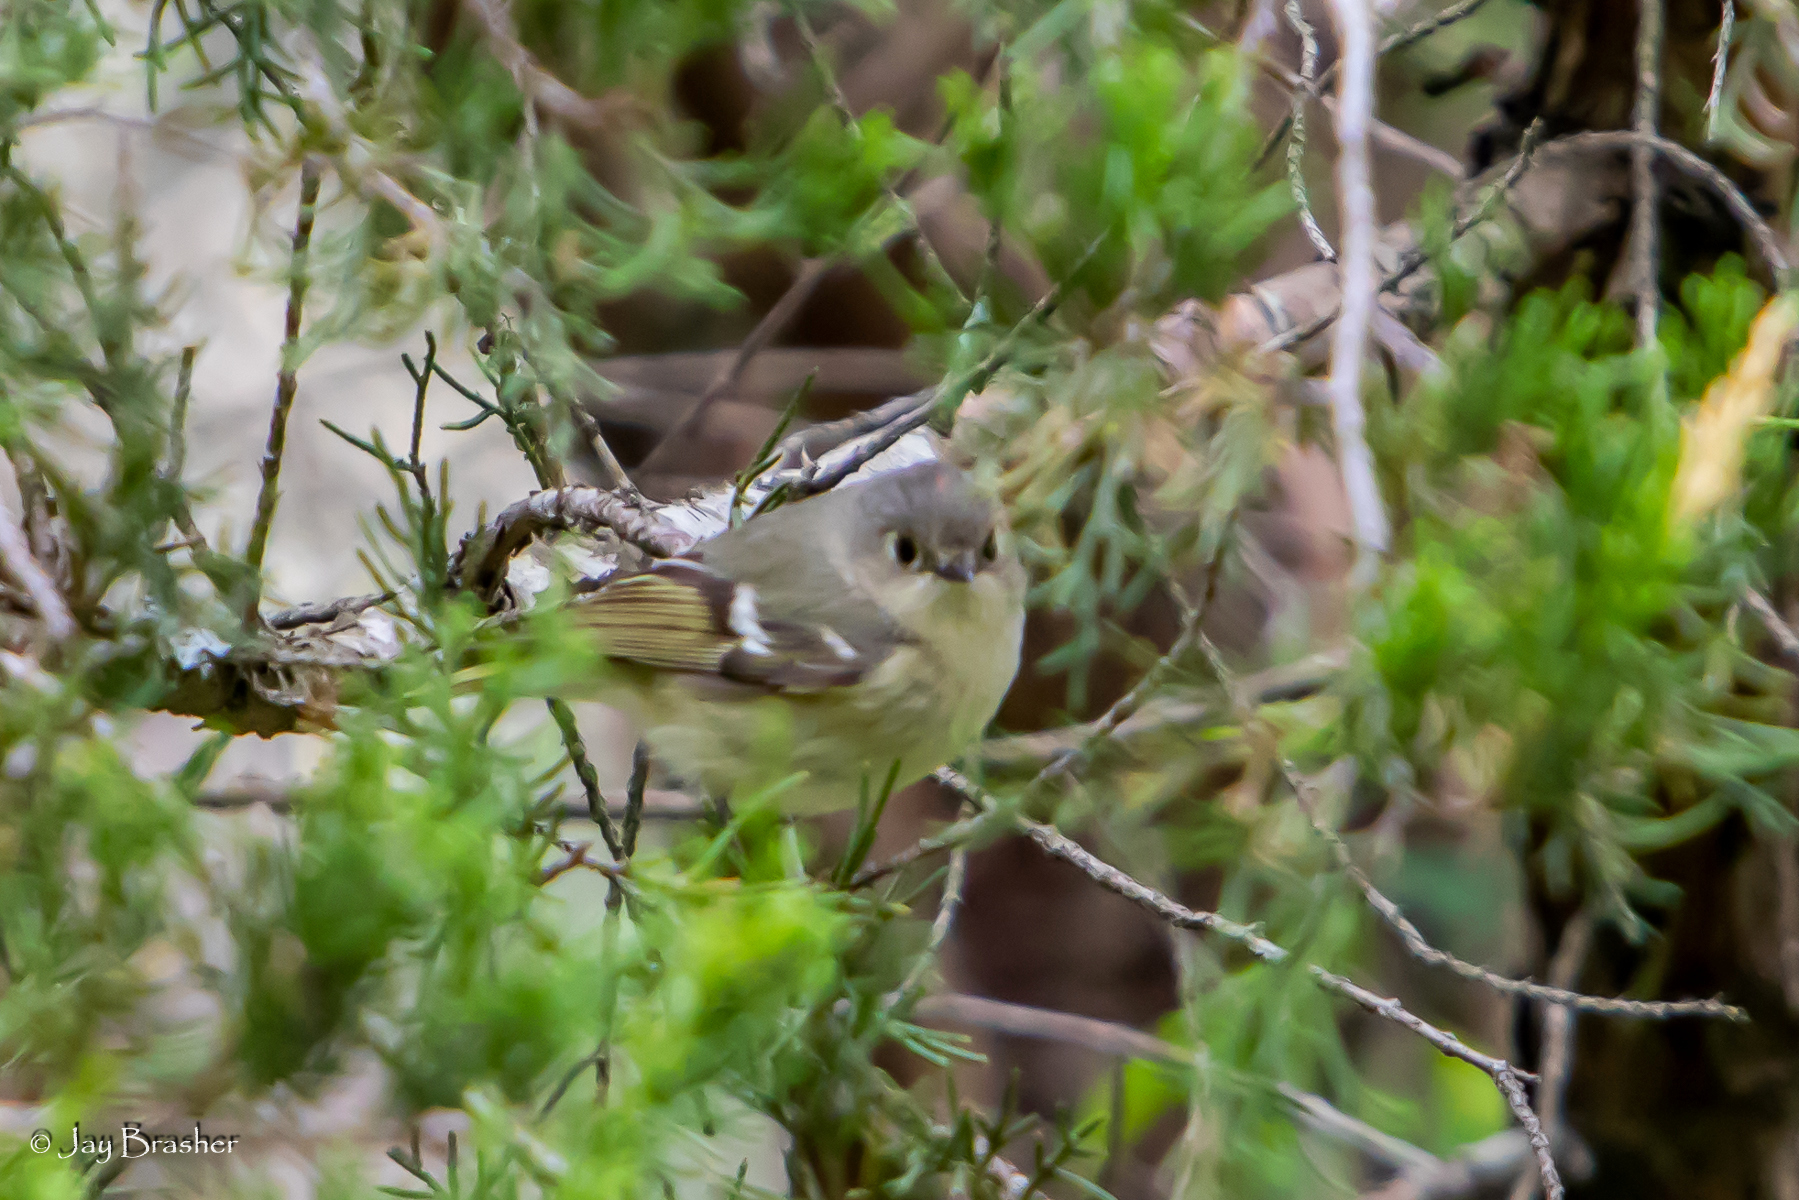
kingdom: Animalia
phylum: Chordata
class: Aves
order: Passeriformes
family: Regulidae
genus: Regulus
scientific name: Regulus calendula
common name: Ruby-crowned kinglet
